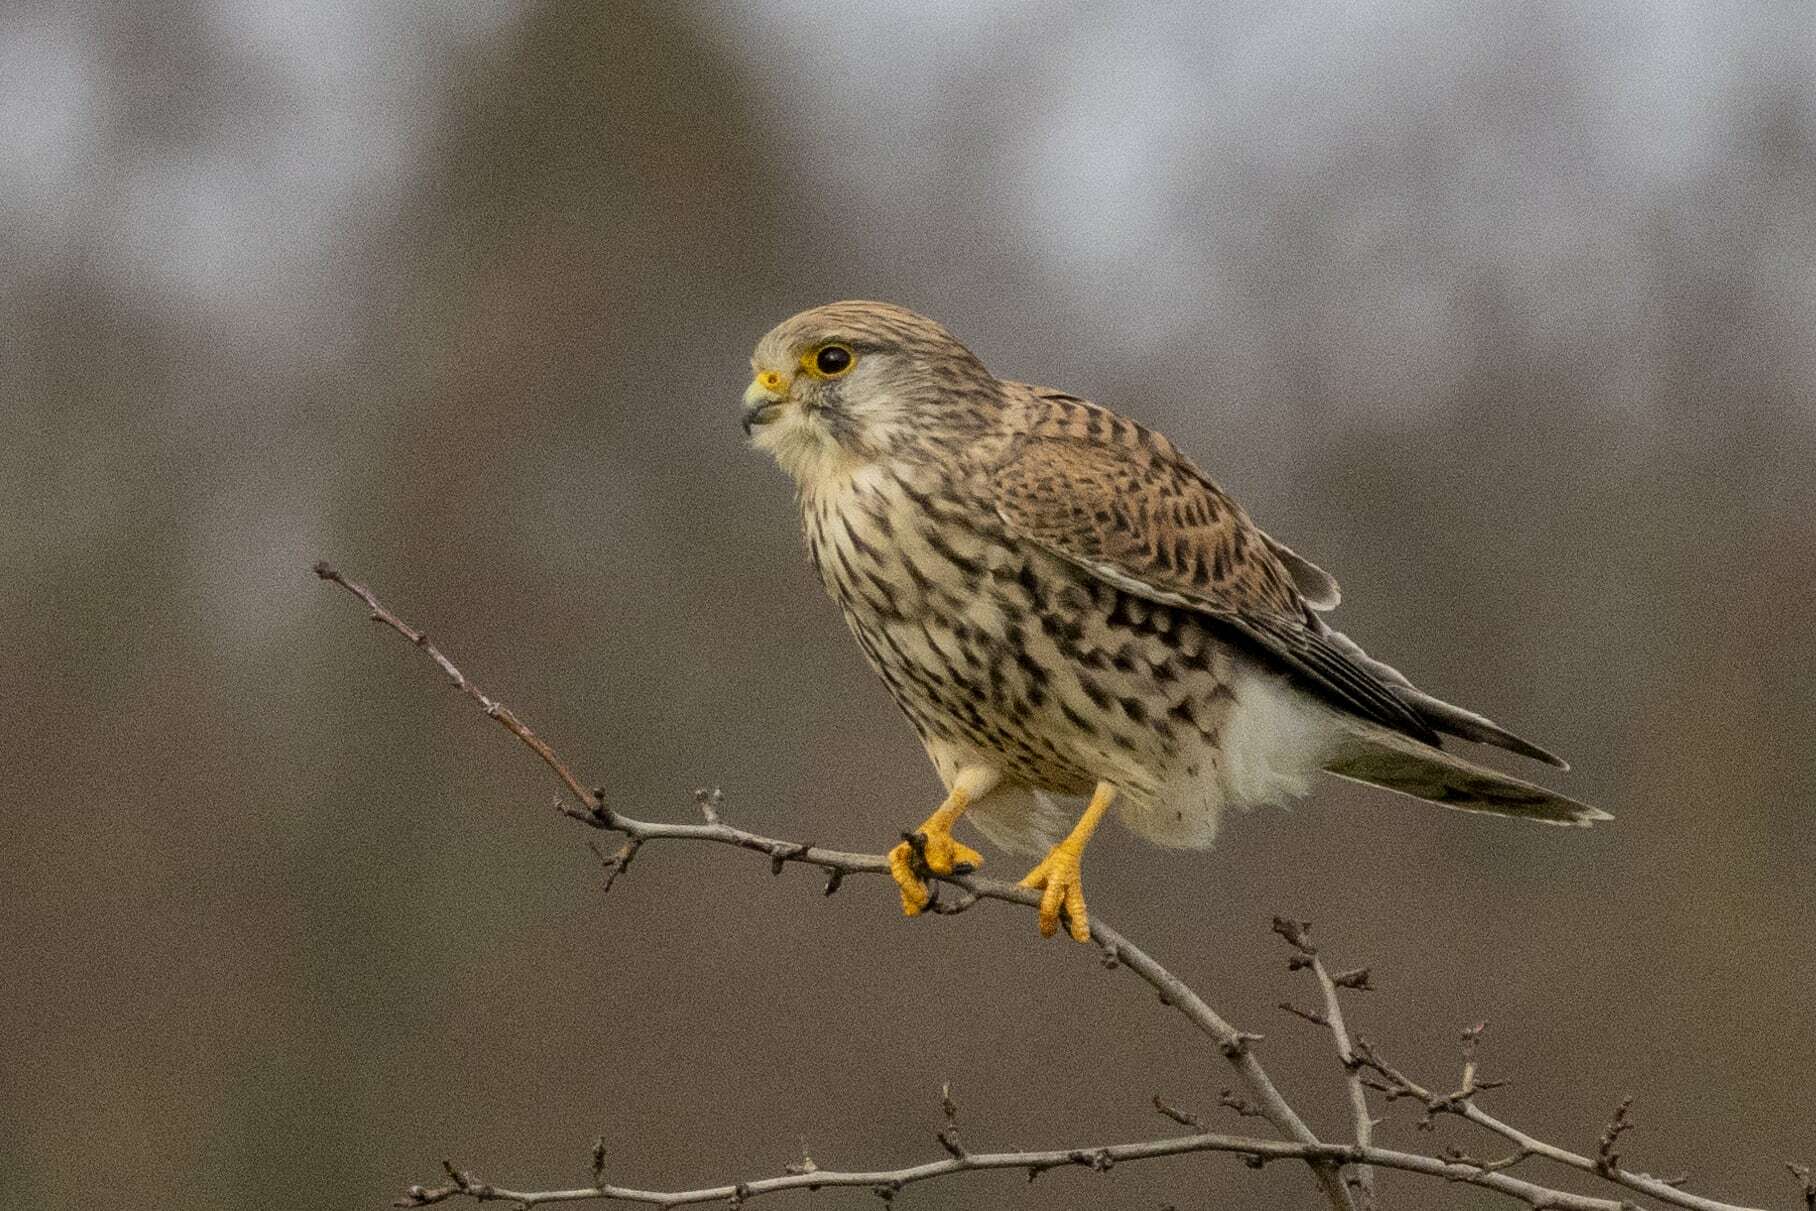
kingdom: Animalia
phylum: Chordata
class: Aves
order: Falconiformes
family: Falconidae
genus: Falco
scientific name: Falco tinnunculus
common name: Common kestrel
